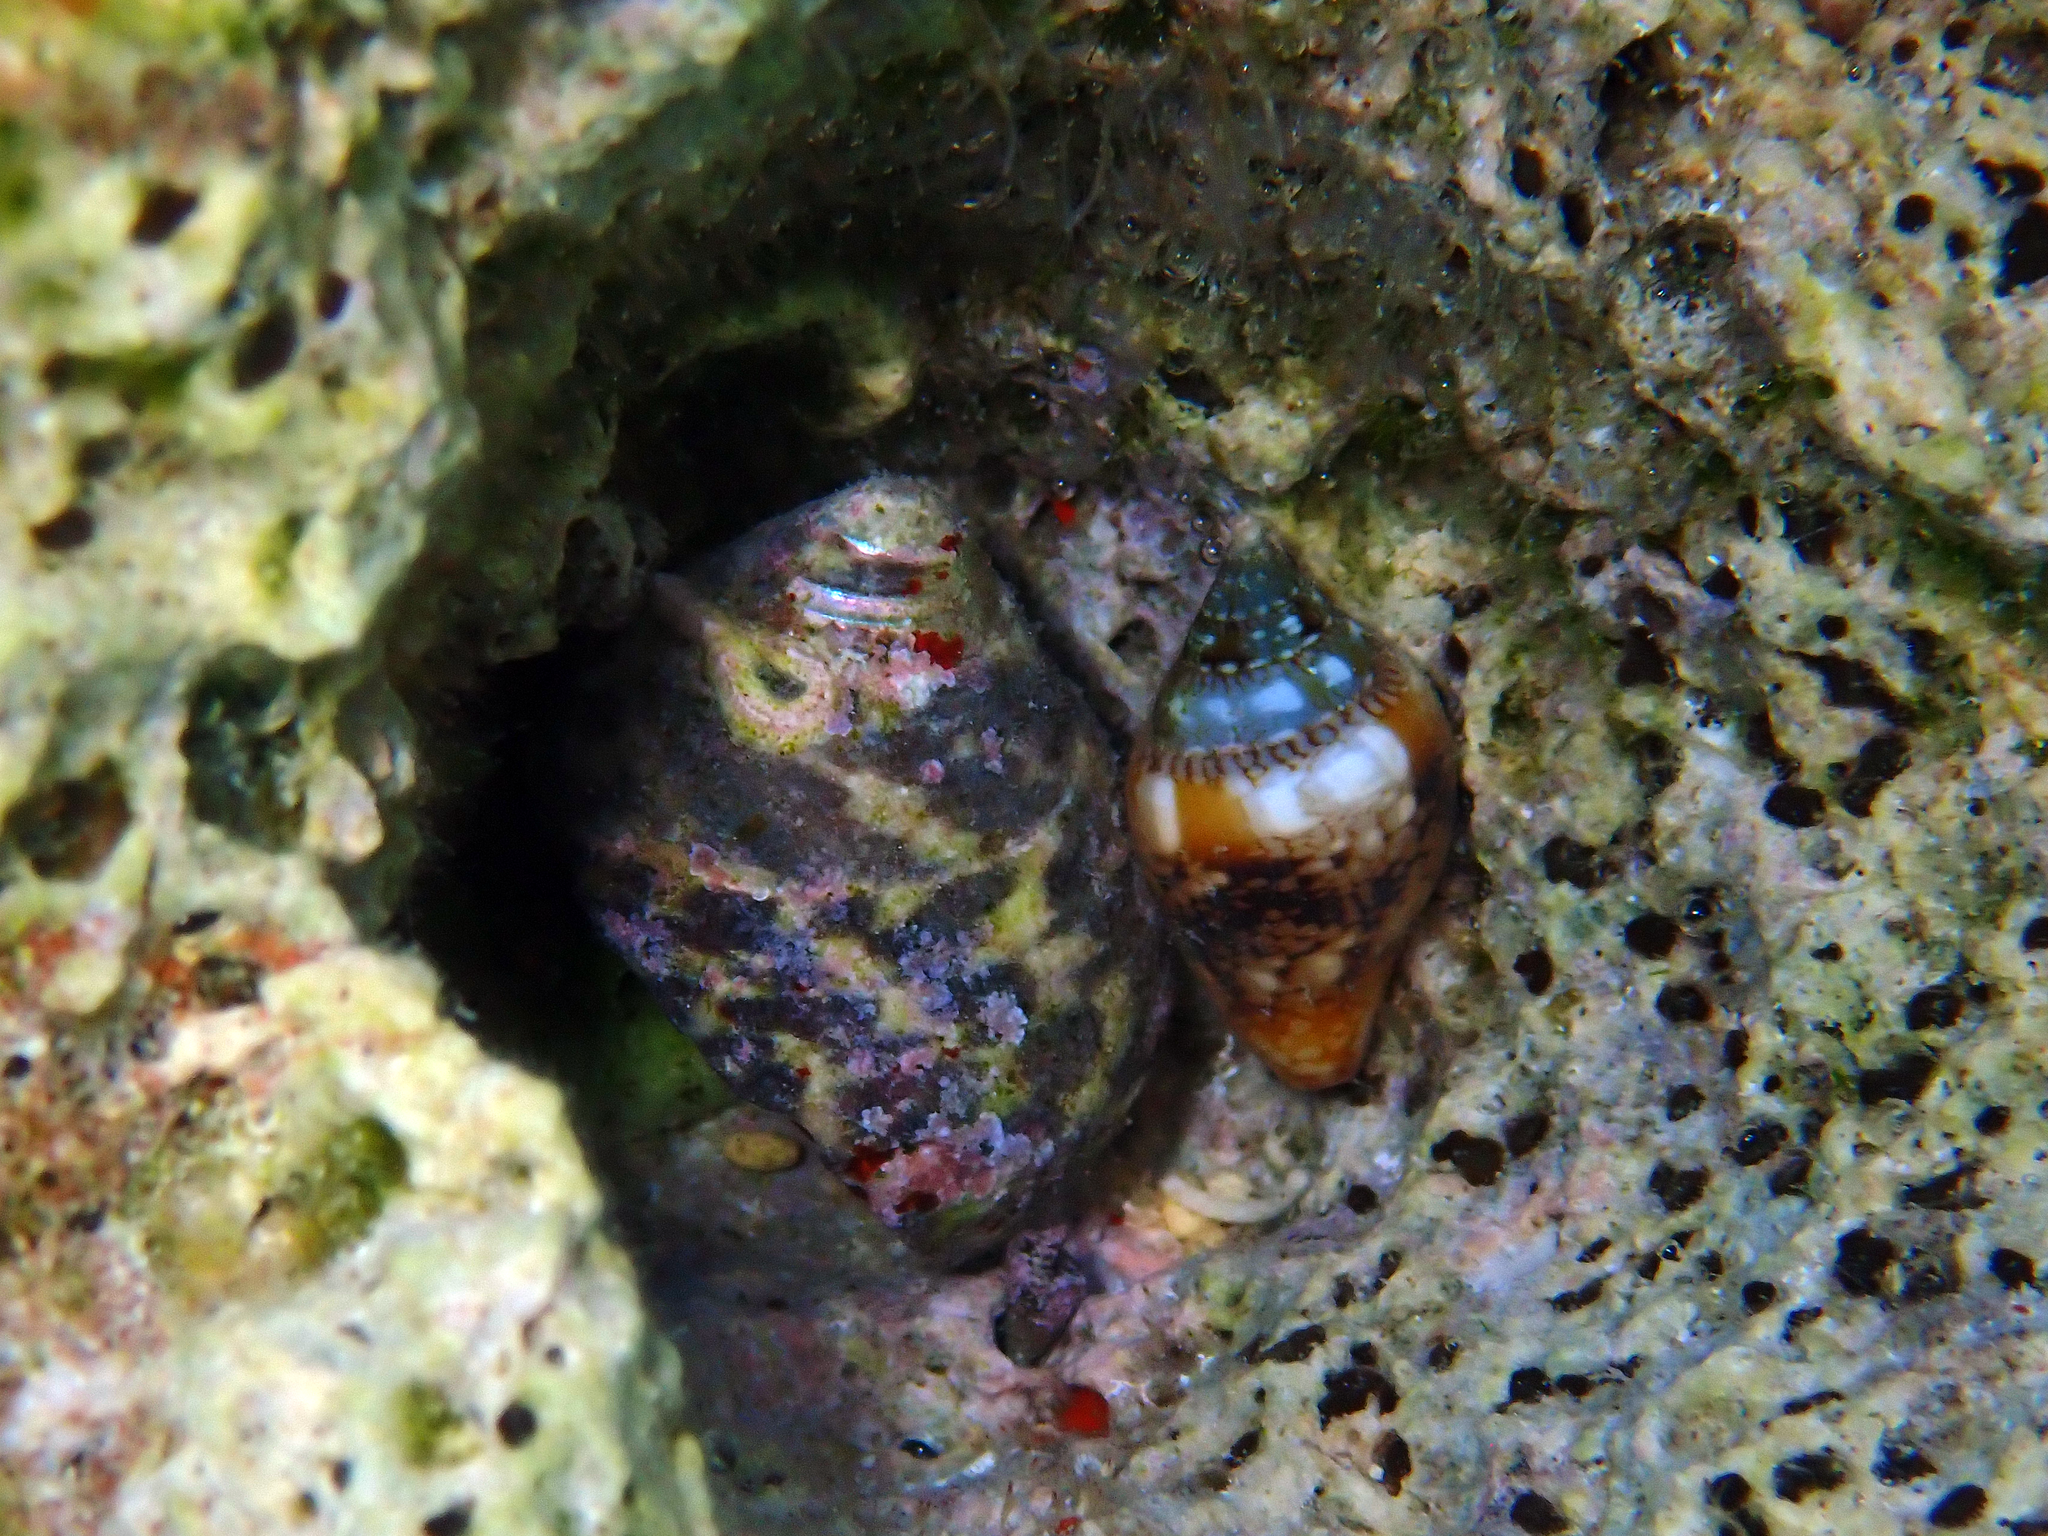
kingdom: Animalia
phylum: Mollusca
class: Gastropoda
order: Neogastropoda
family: Columbellidae
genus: Columbella
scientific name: Columbella rustica
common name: Rustic dove shell
